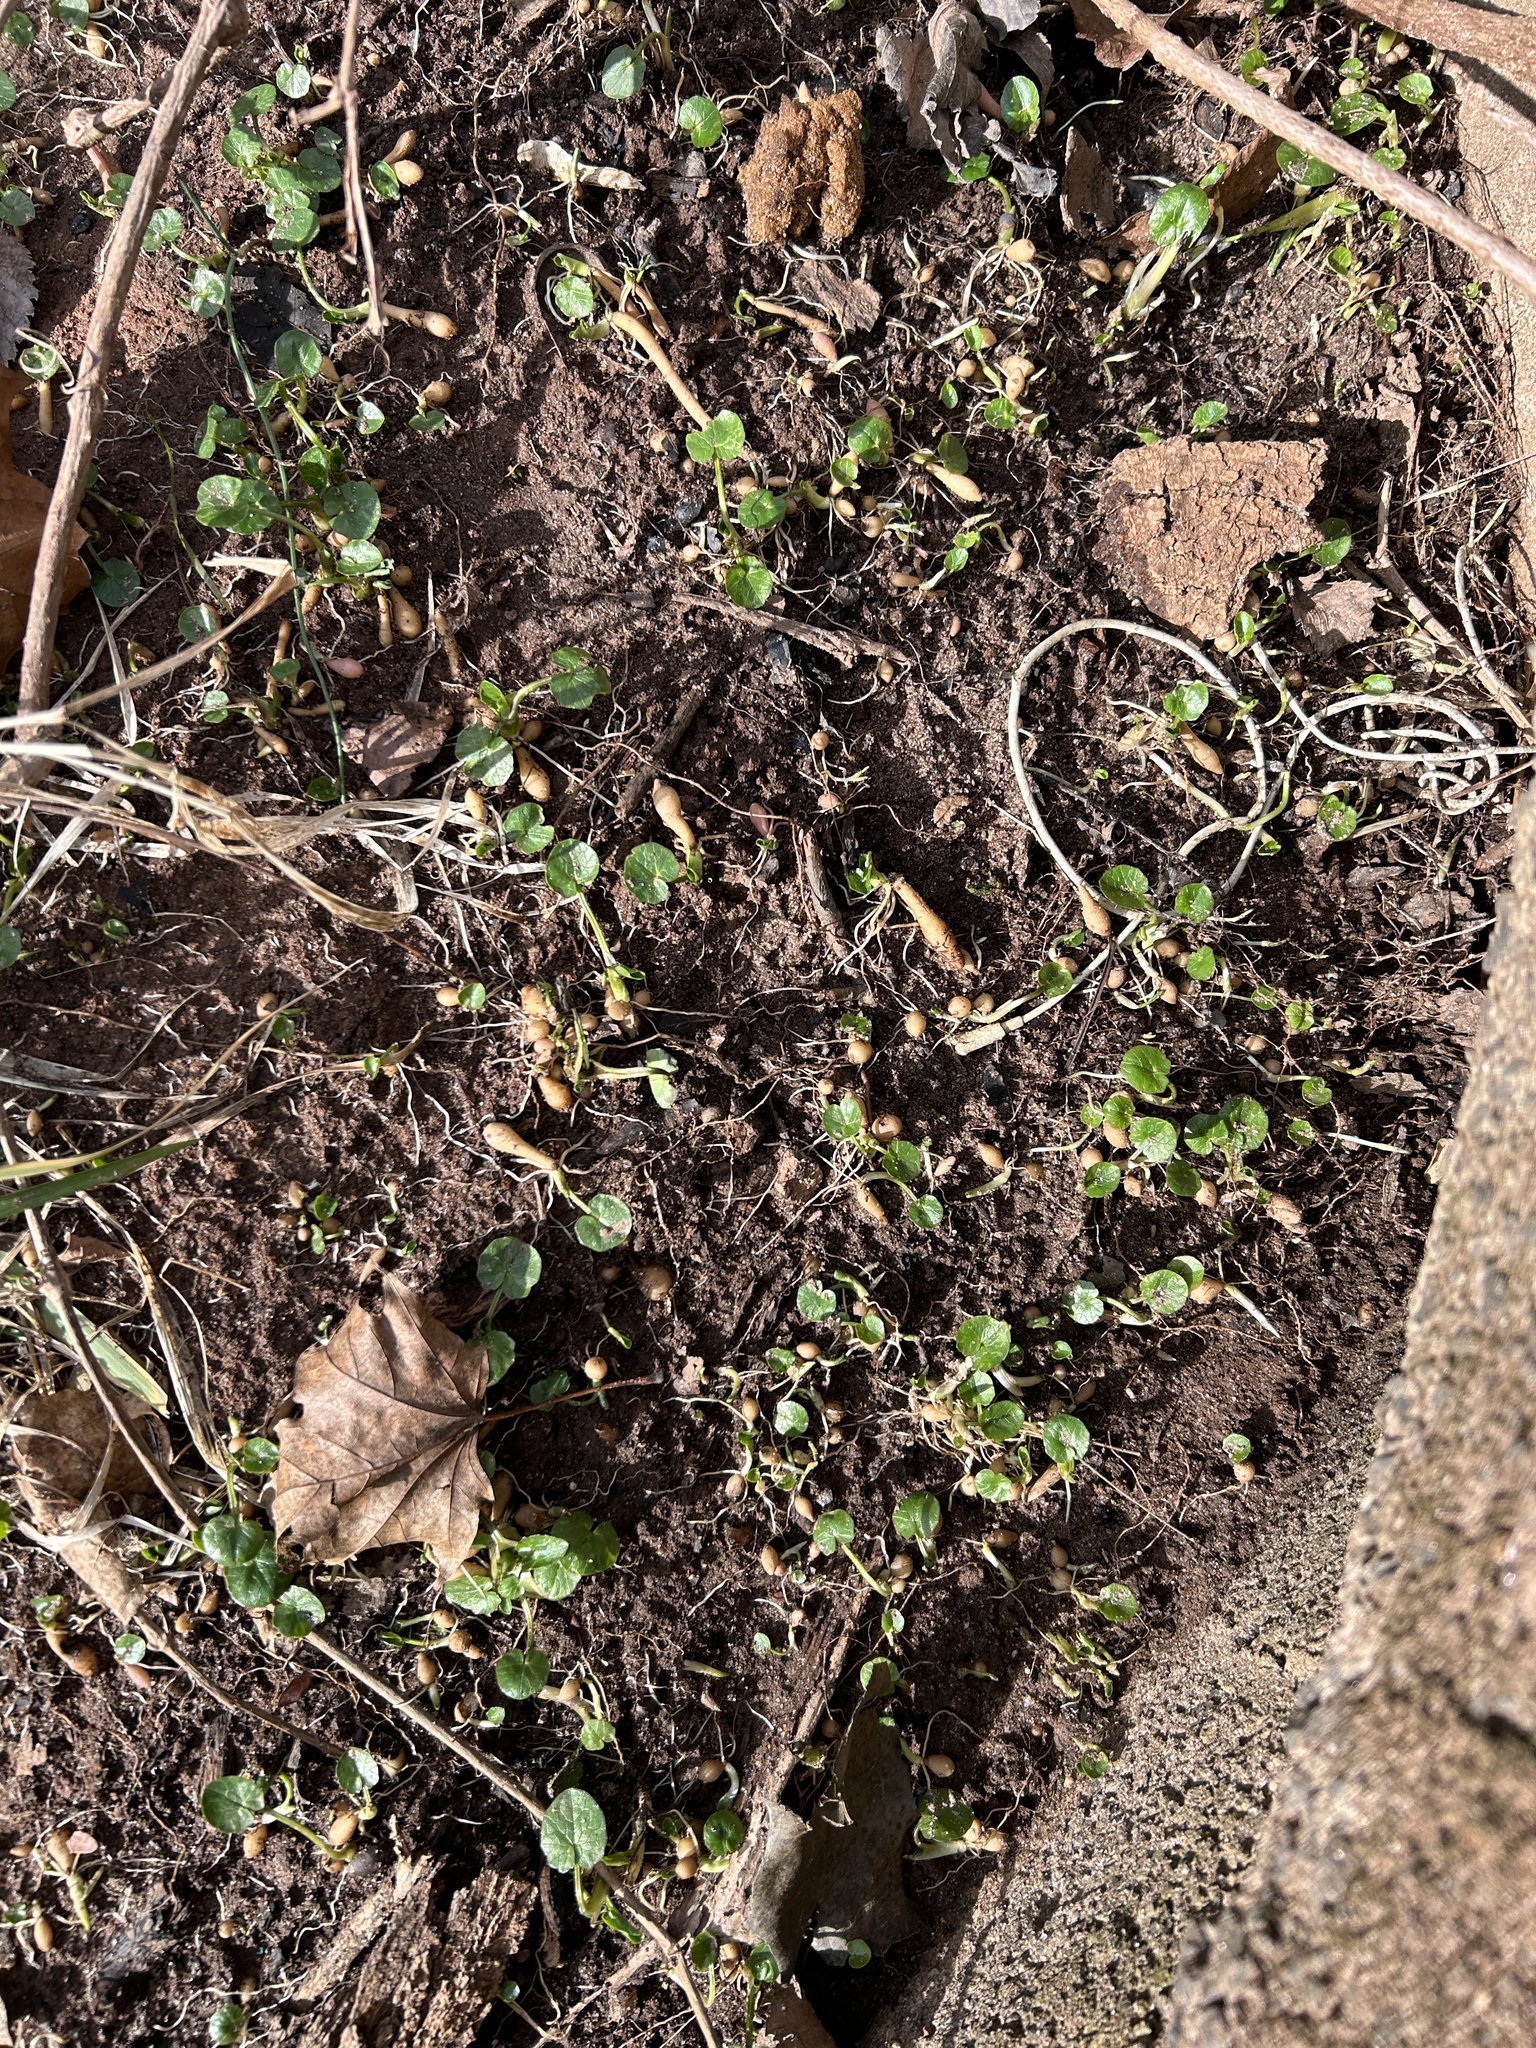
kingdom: Plantae
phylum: Tracheophyta
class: Magnoliopsida
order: Ranunculales
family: Ranunculaceae
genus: Ficaria
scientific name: Ficaria verna
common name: Lesser celandine
